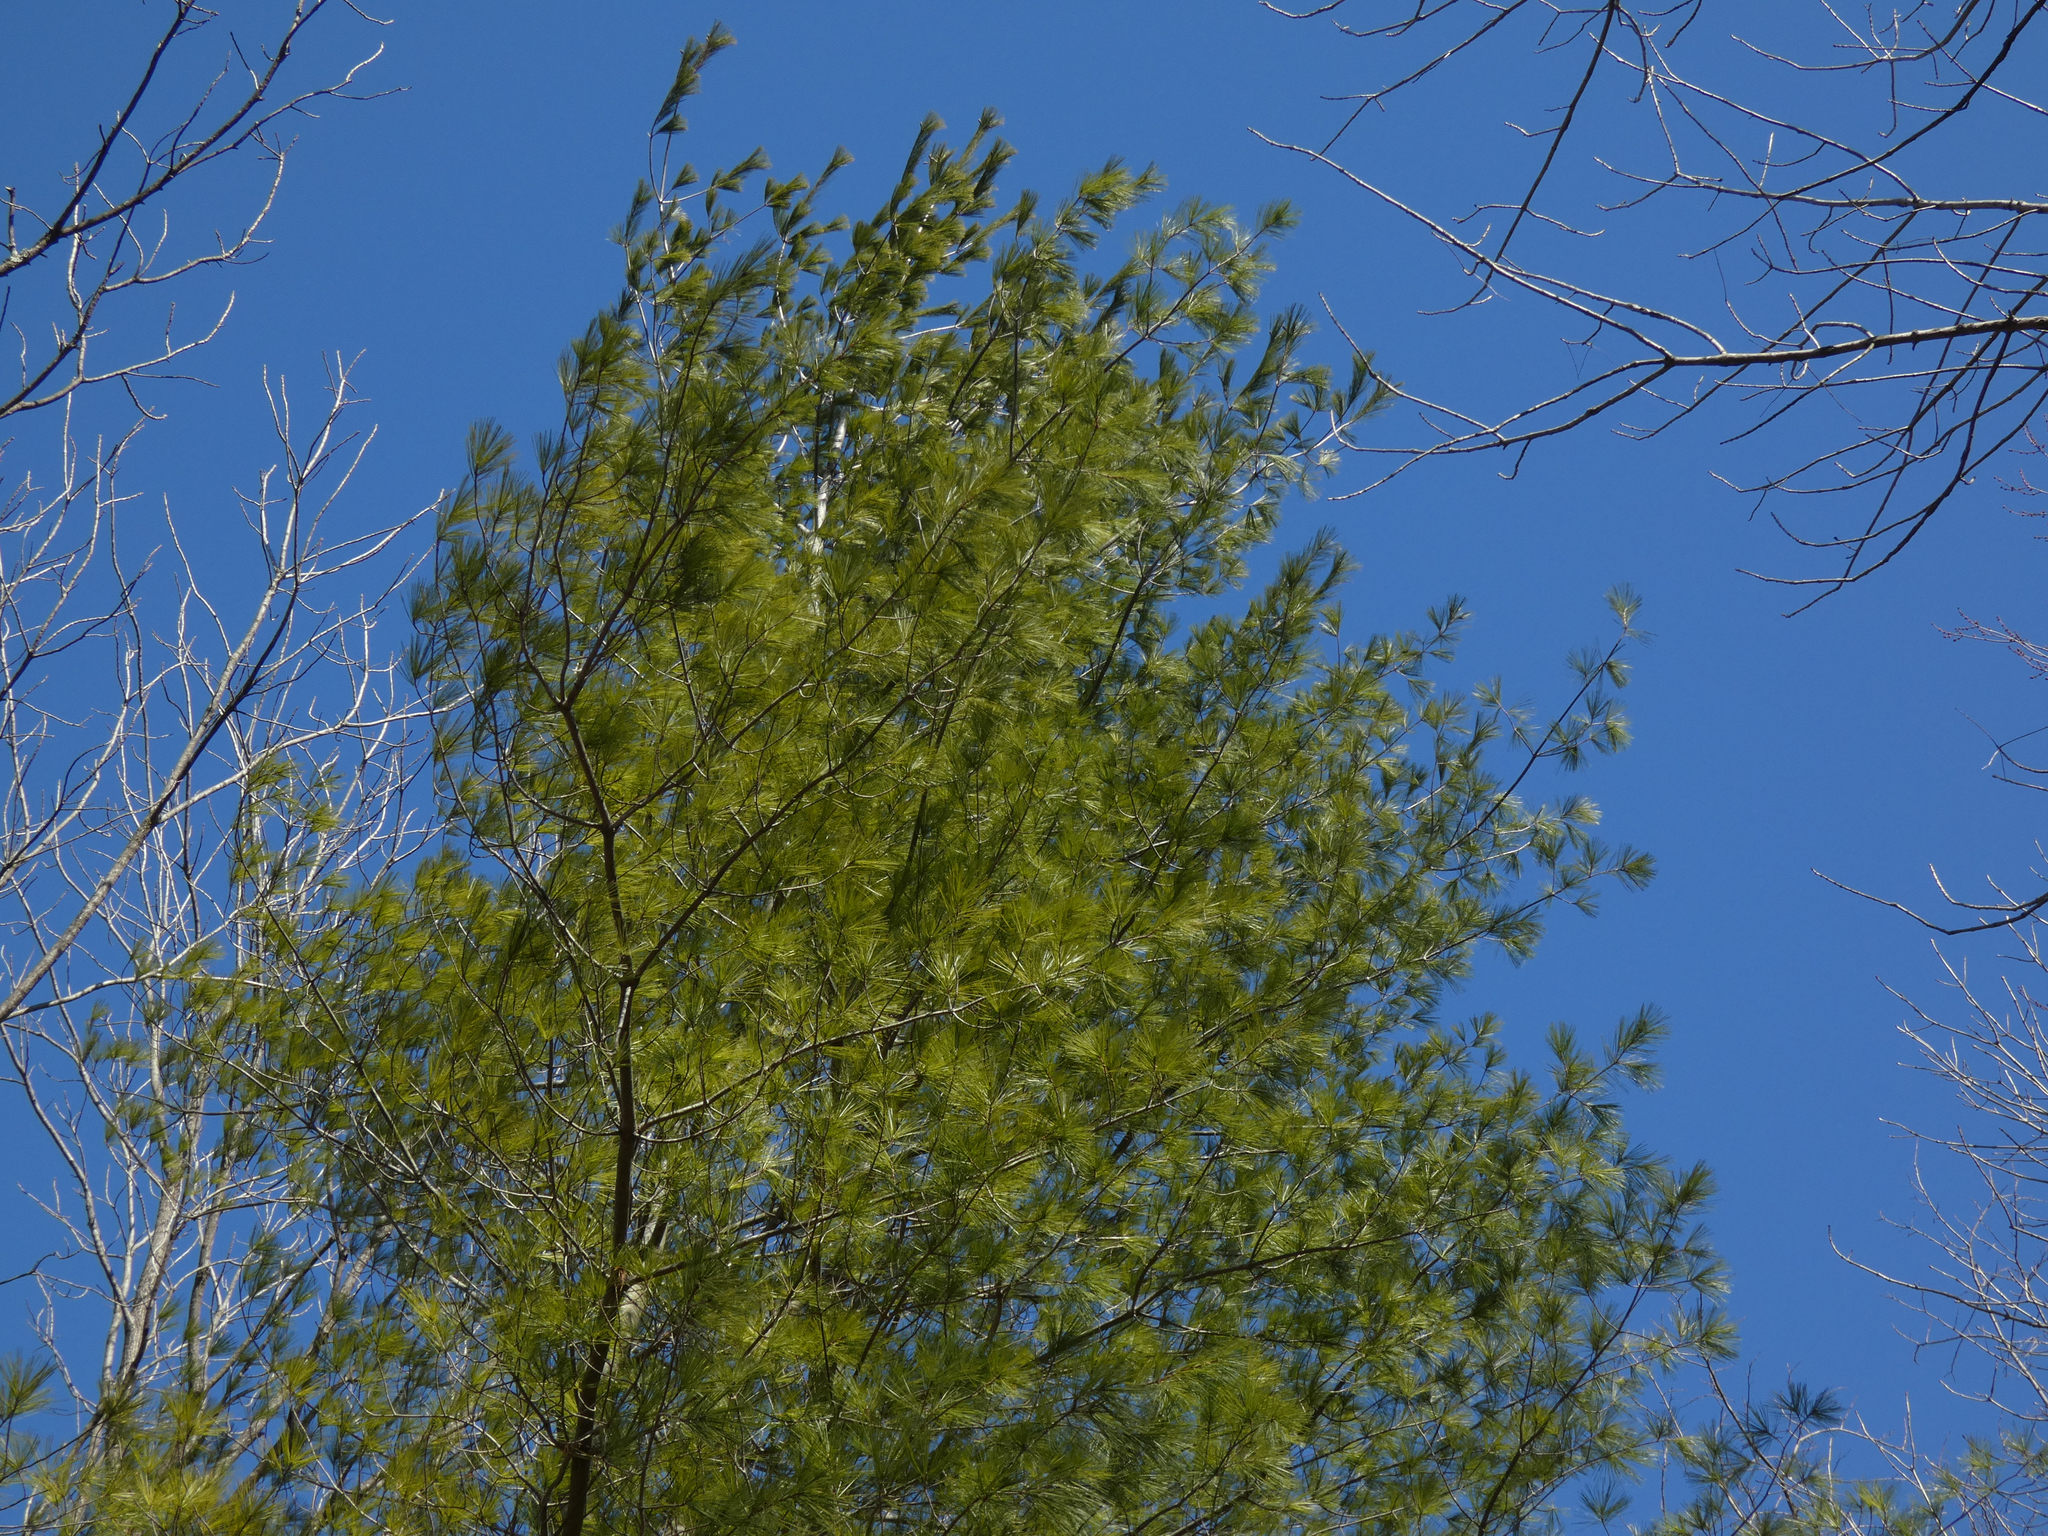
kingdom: Plantae
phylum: Tracheophyta
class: Pinopsida
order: Pinales
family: Pinaceae
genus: Pinus
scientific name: Pinus strobus
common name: Weymouth pine
